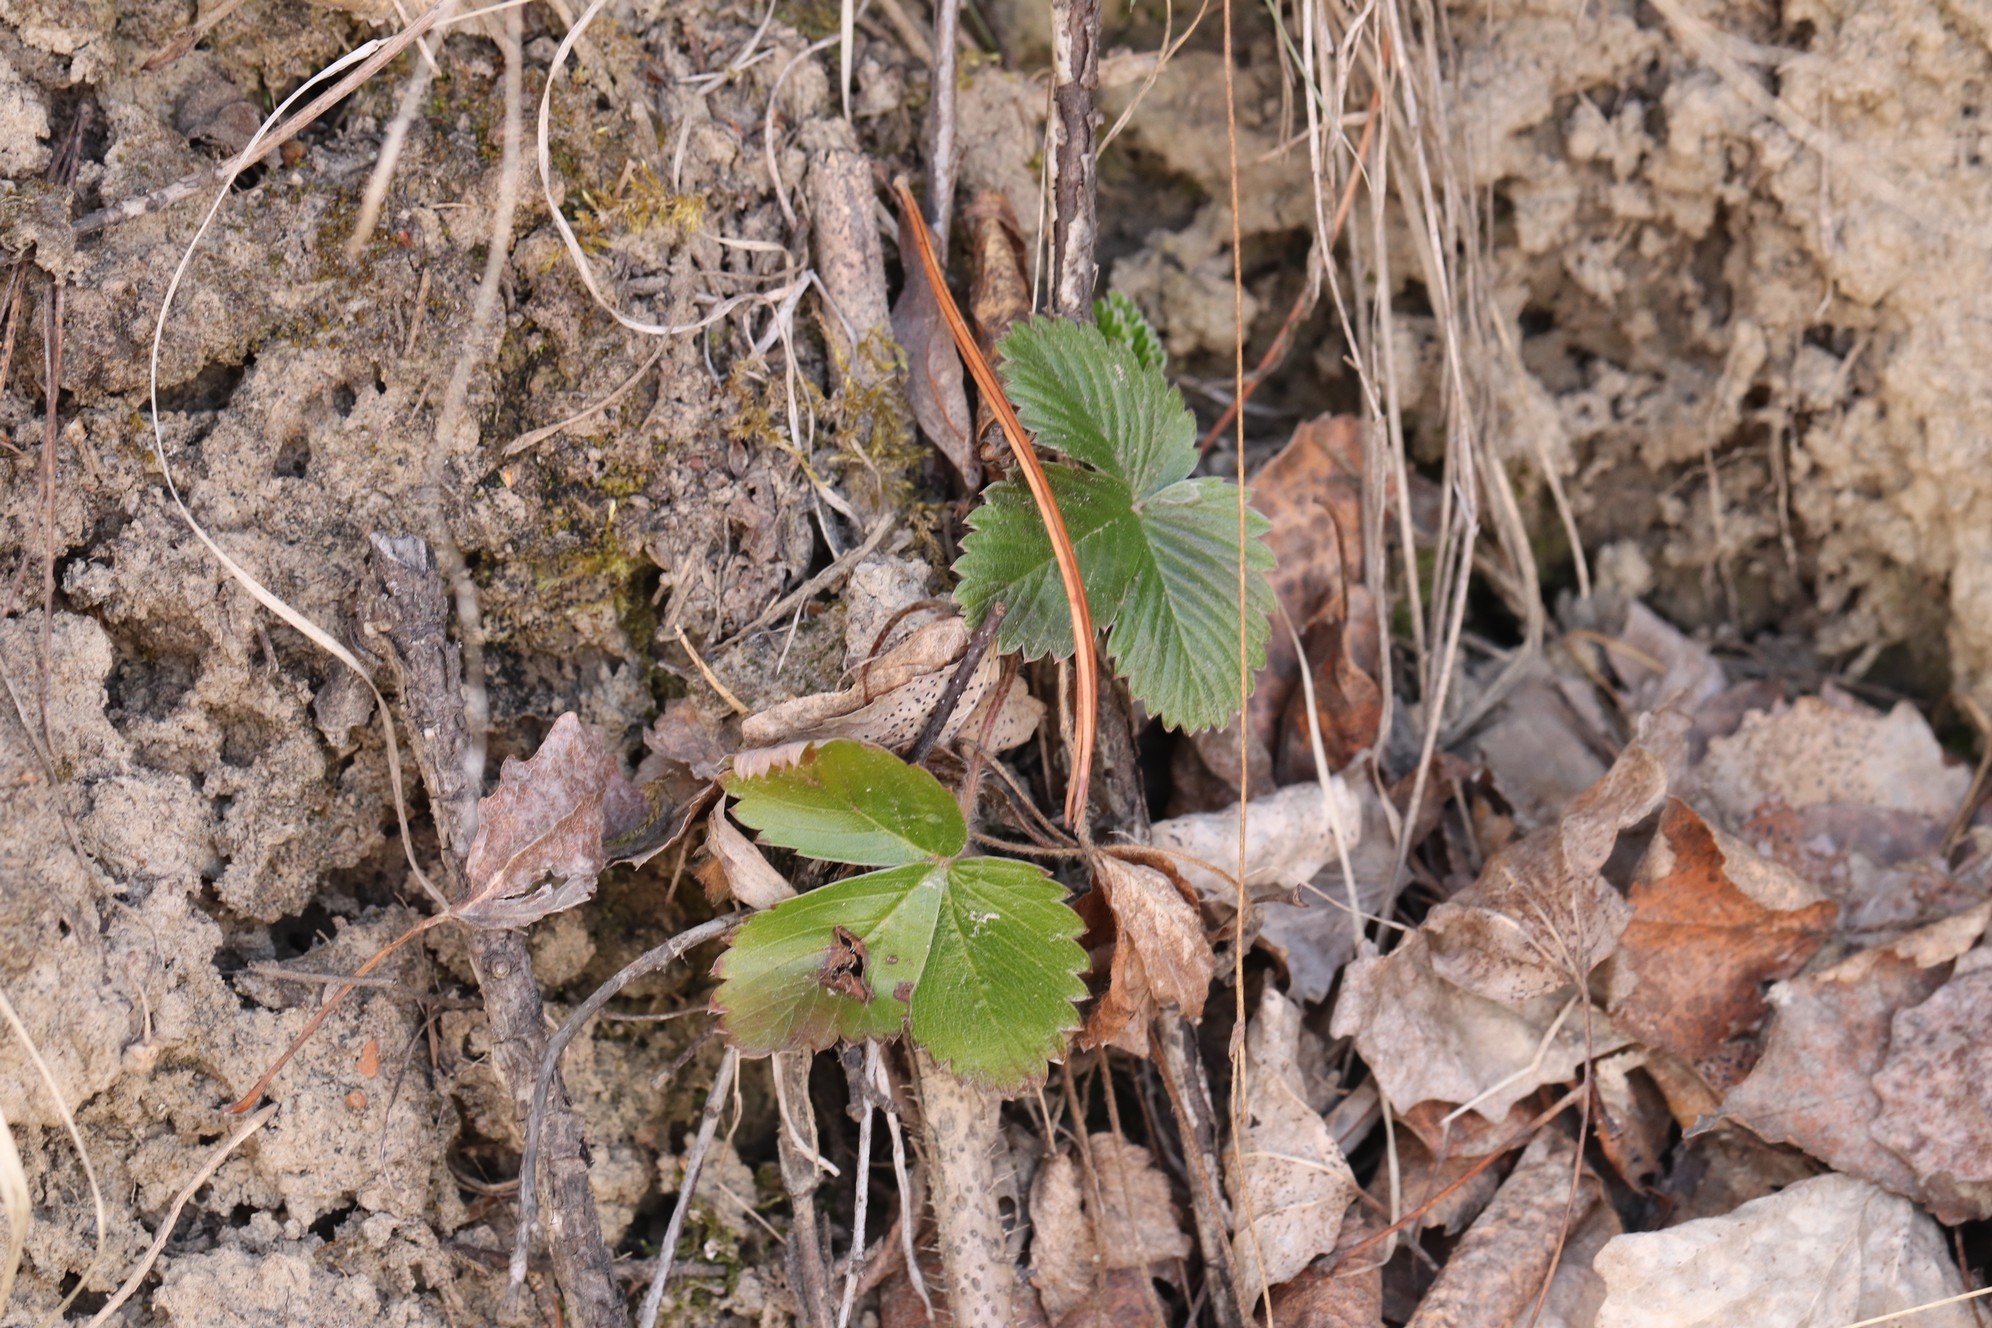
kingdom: Plantae
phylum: Tracheophyta
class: Magnoliopsida
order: Rosales
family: Rosaceae
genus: Fragaria
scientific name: Fragaria vesca
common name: Wild strawberry
